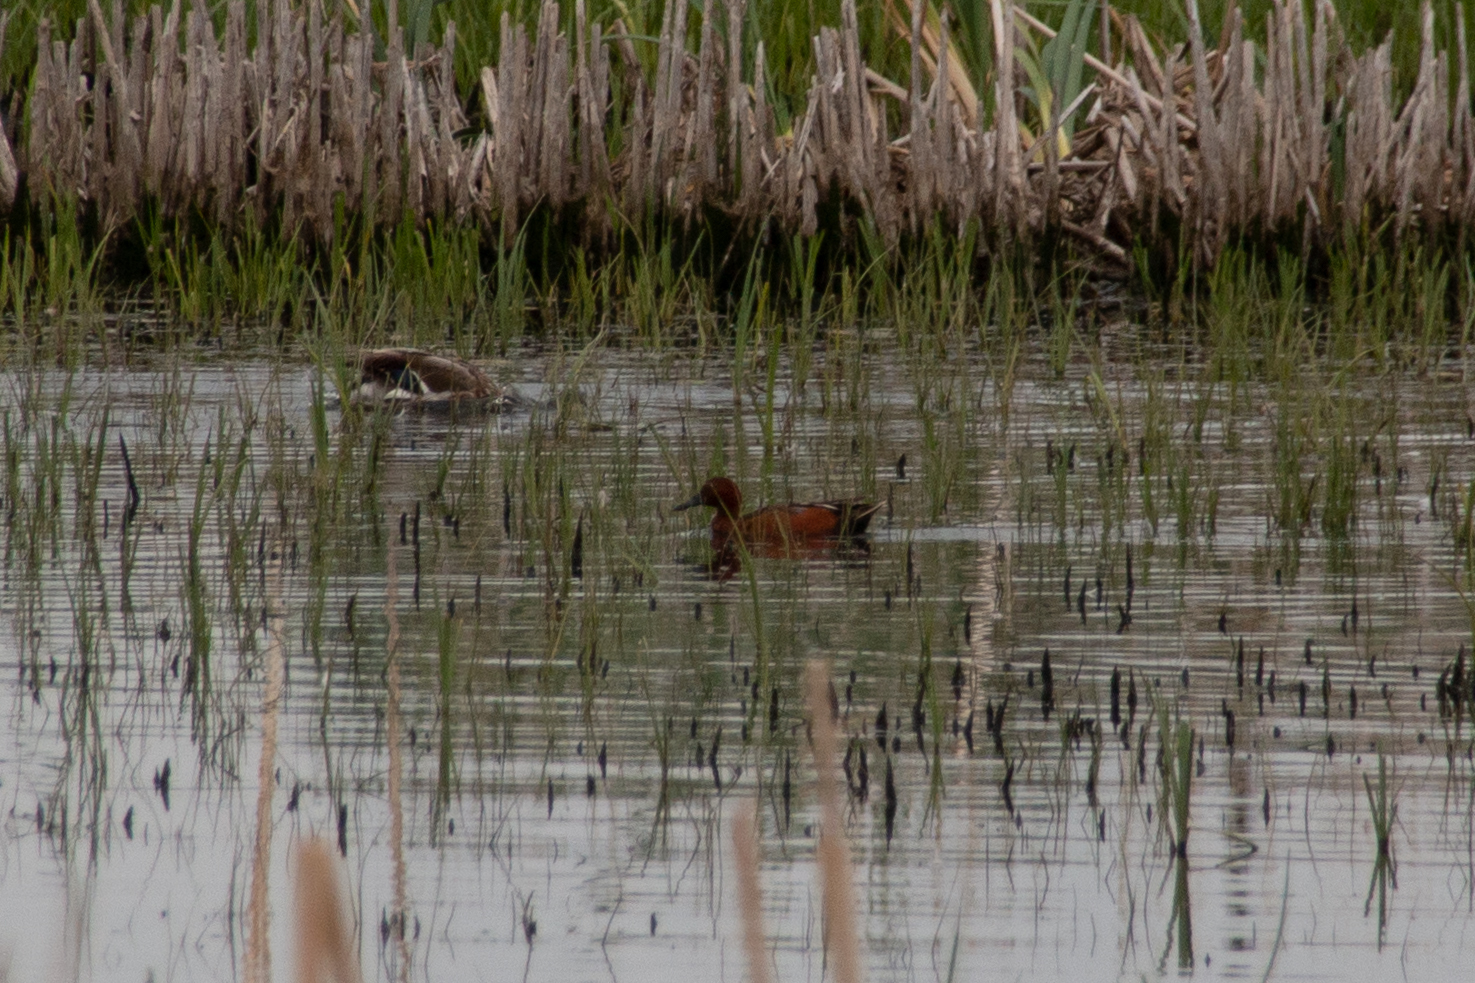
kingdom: Animalia
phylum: Chordata
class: Aves
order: Anseriformes
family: Anatidae
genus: Spatula
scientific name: Spatula cyanoptera
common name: Cinnamon teal
